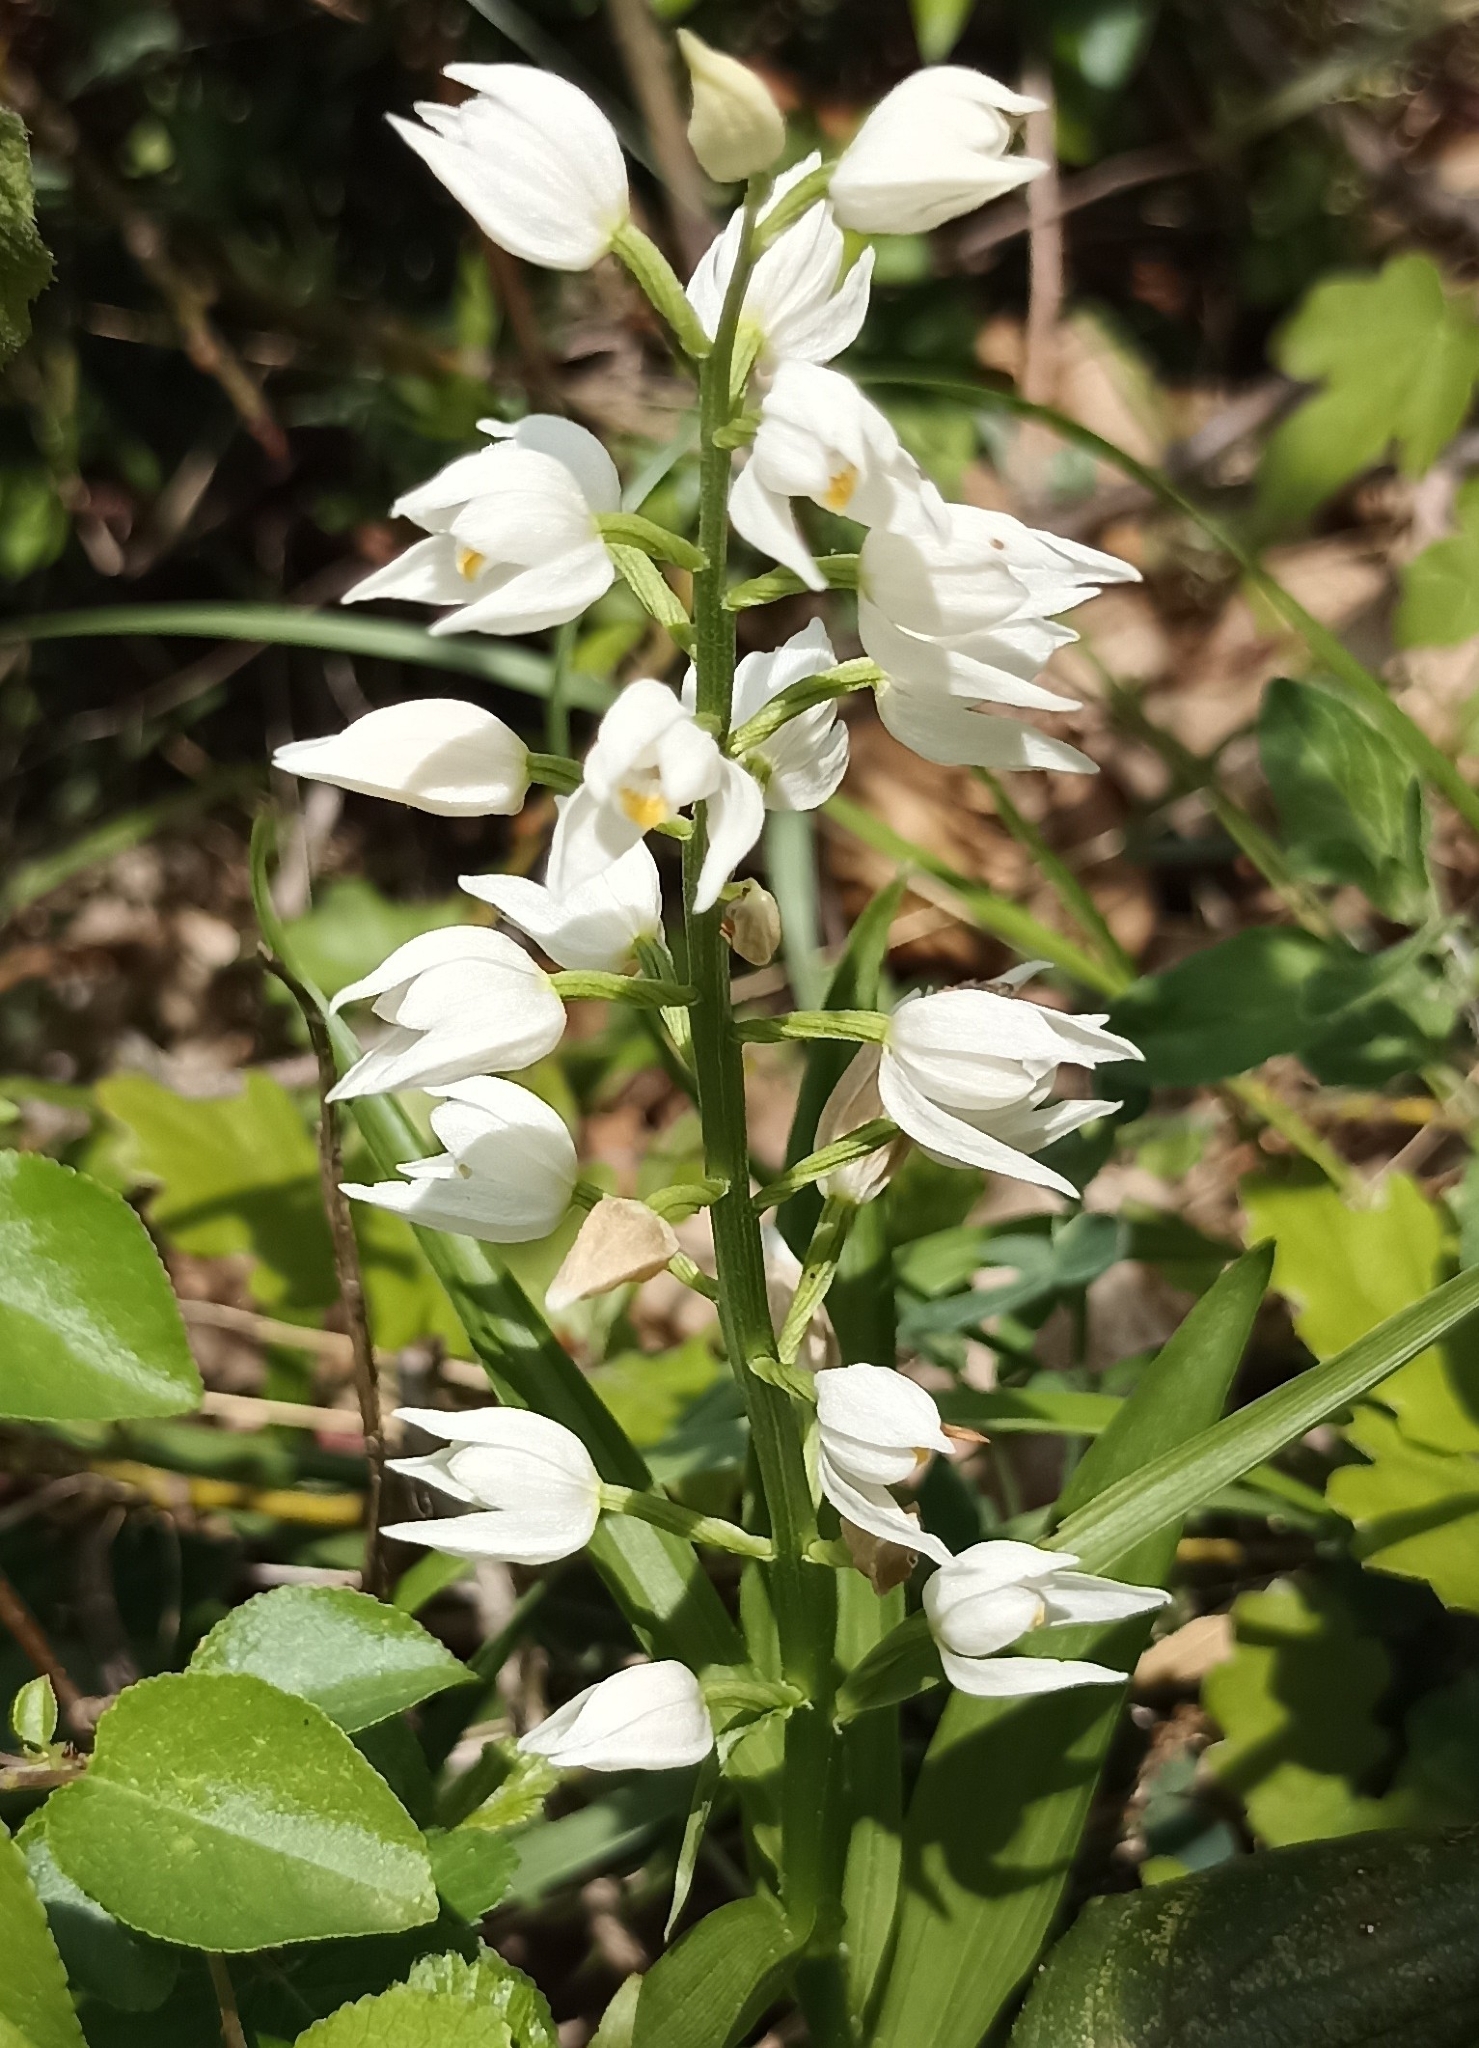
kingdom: Plantae
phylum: Tracheophyta
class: Liliopsida
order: Asparagales
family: Orchidaceae
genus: Cephalanthera
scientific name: Cephalanthera longifolia
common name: Narrow-leaved helleborine
